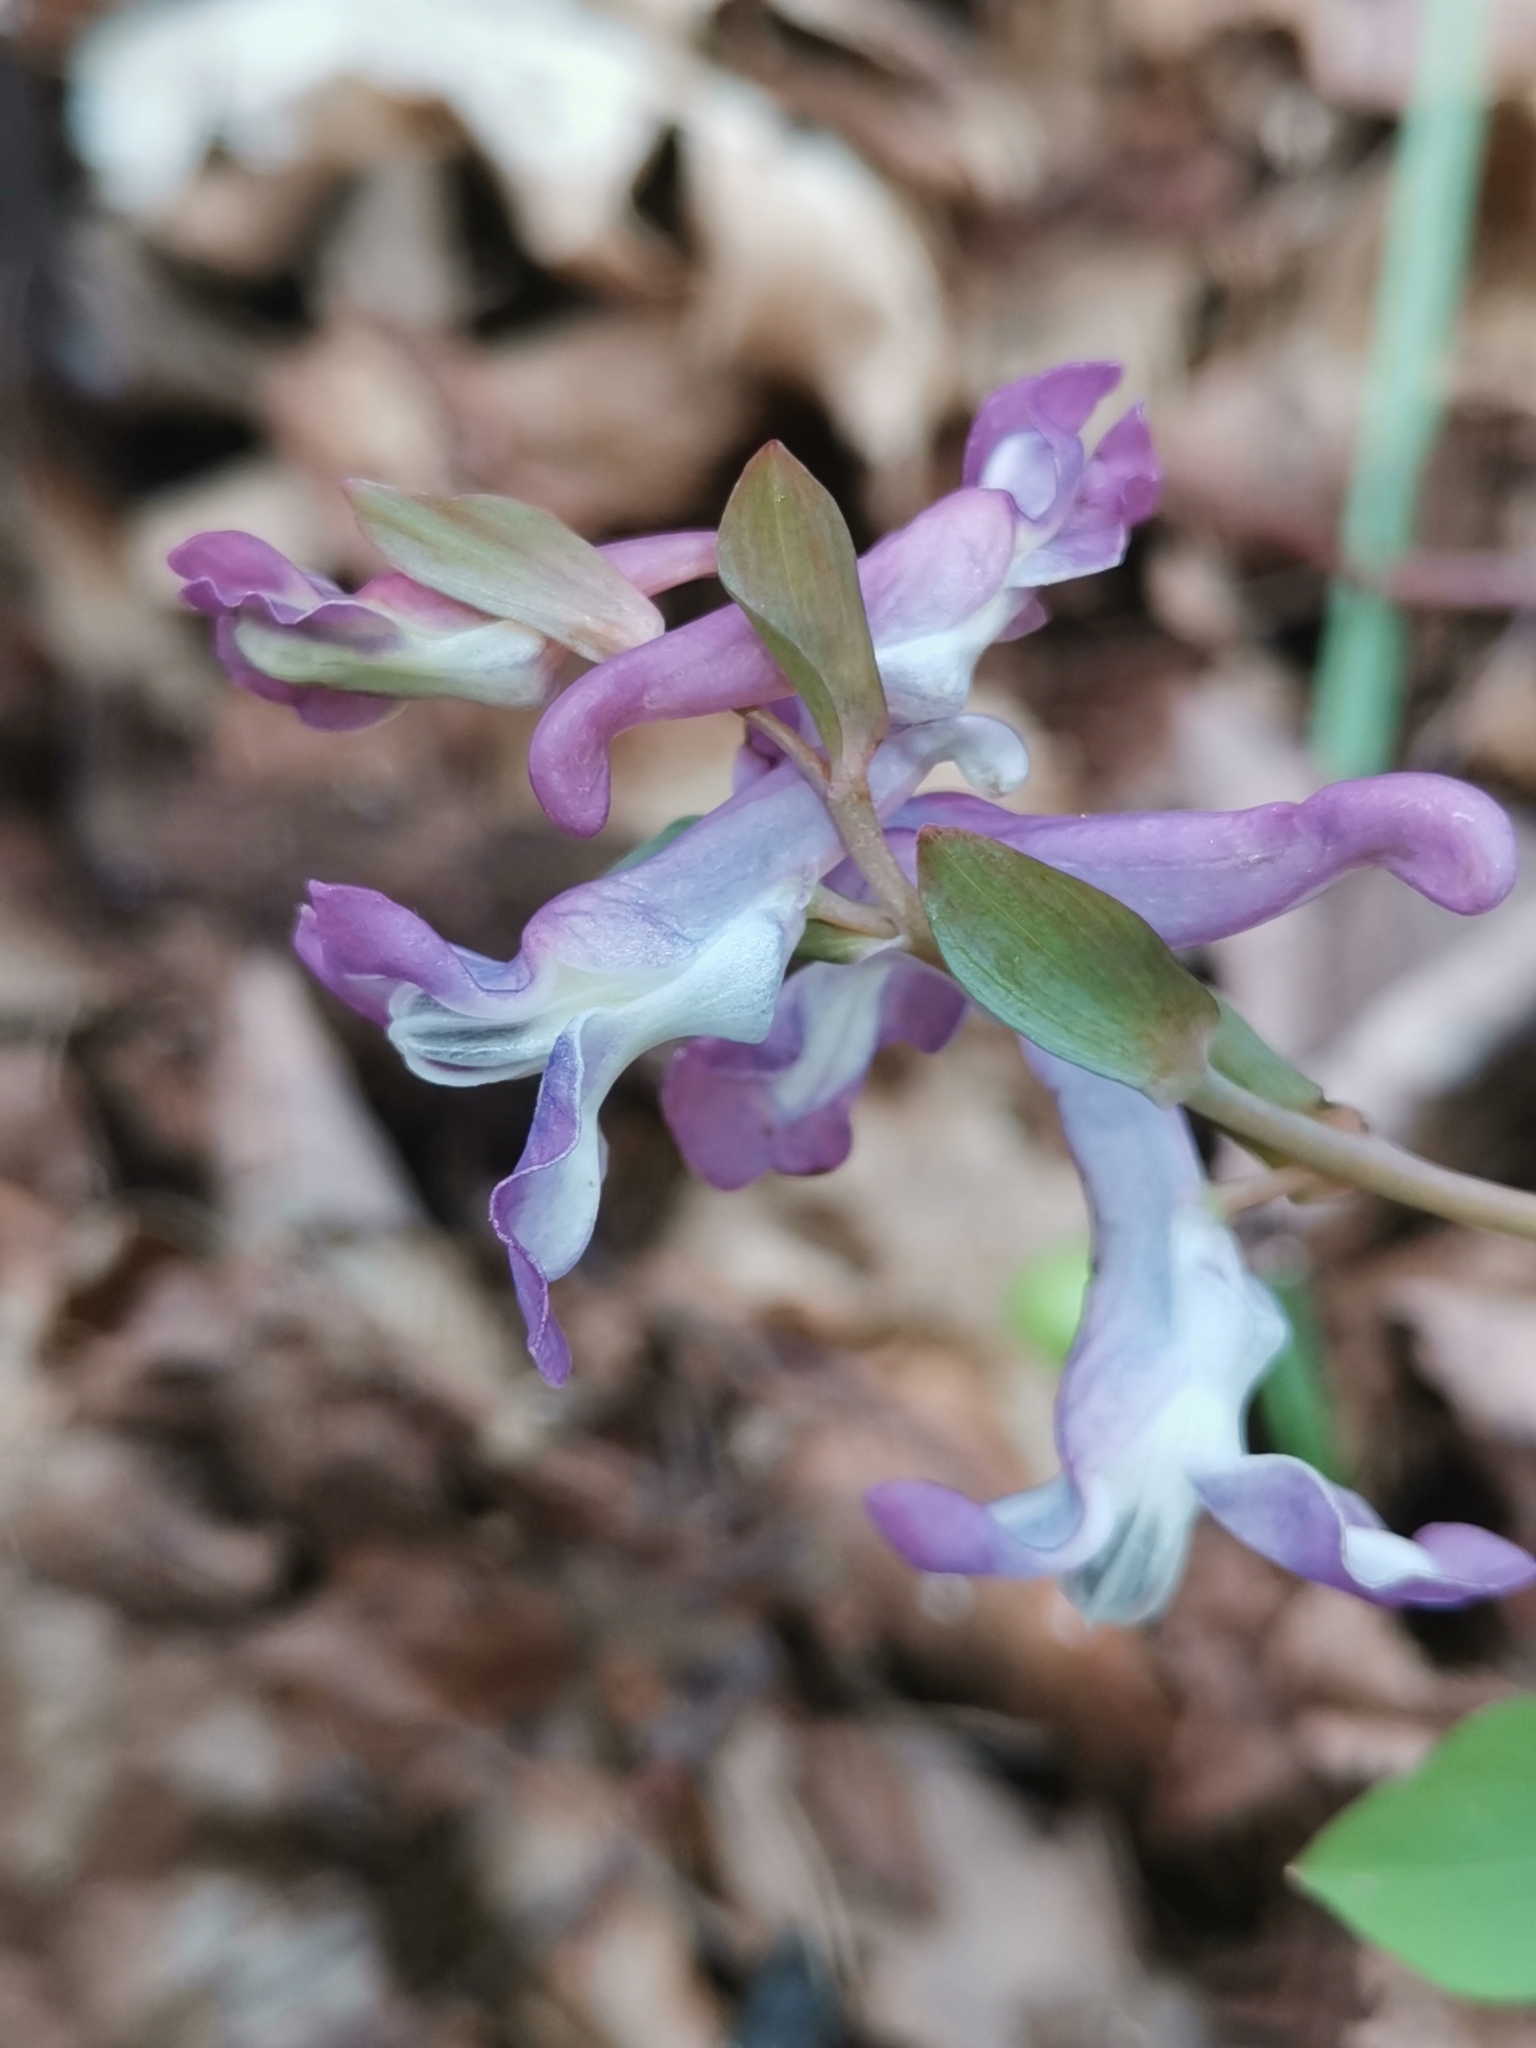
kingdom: Plantae
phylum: Tracheophyta
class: Magnoliopsida
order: Ranunculales
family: Papaveraceae
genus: Corydalis
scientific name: Corydalis cava
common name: Hollowroot
